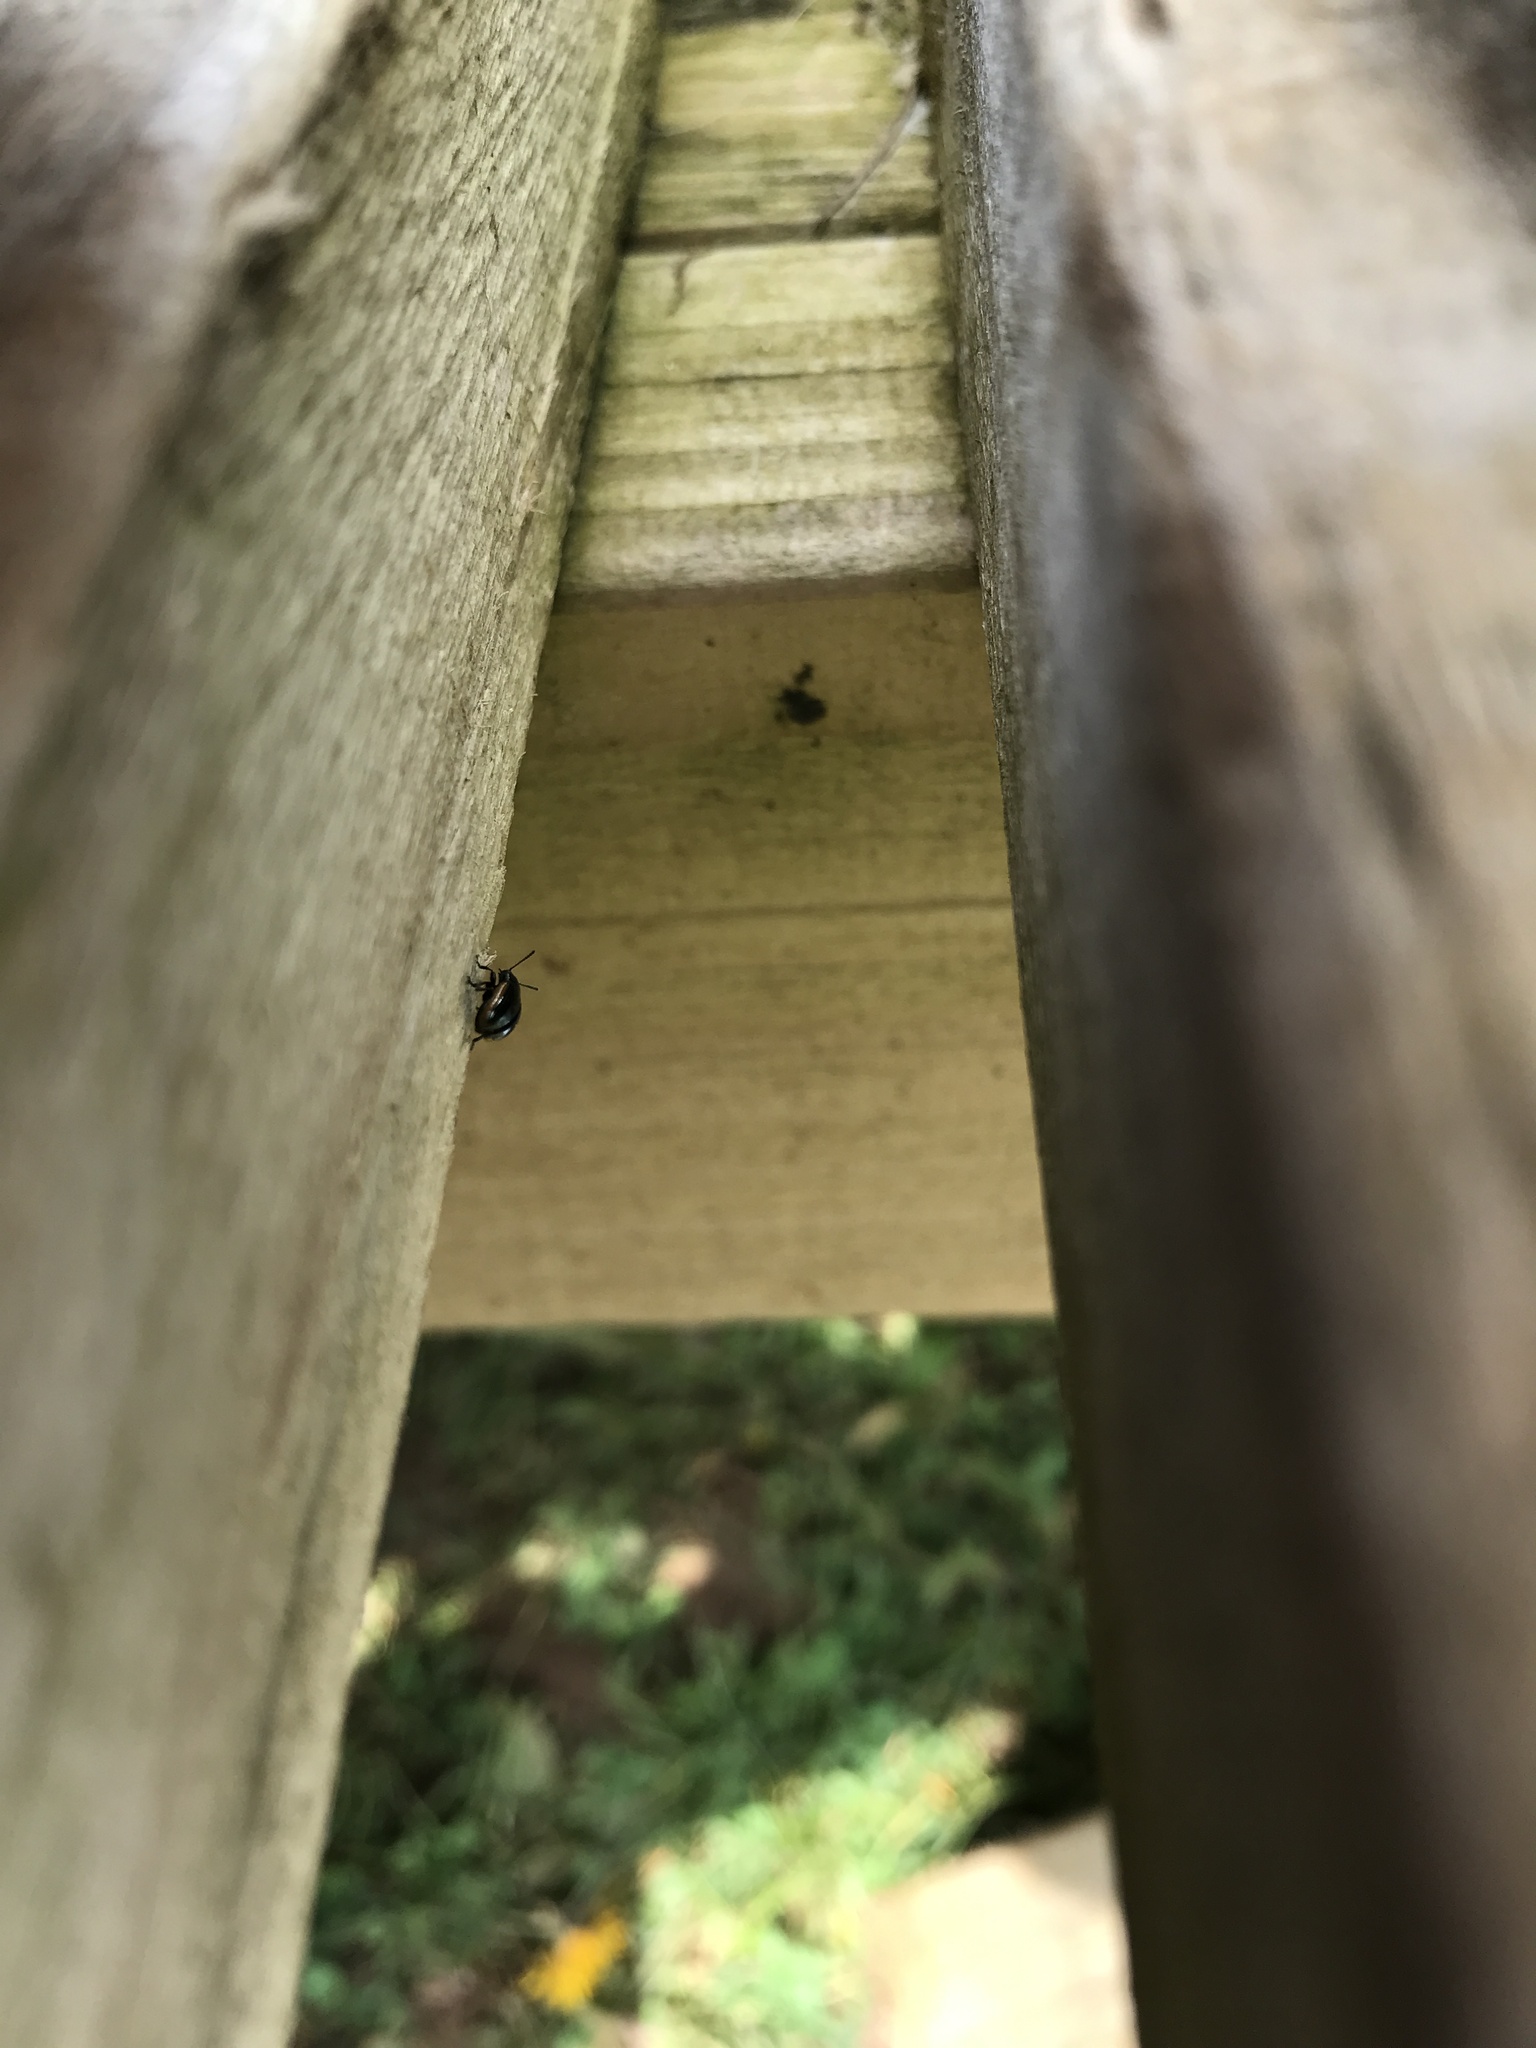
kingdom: Animalia
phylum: Arthropoda
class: Insecta
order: Coleoptera
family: Chrysomelidae
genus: Hydrothassa
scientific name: Hydrothassa glabra
